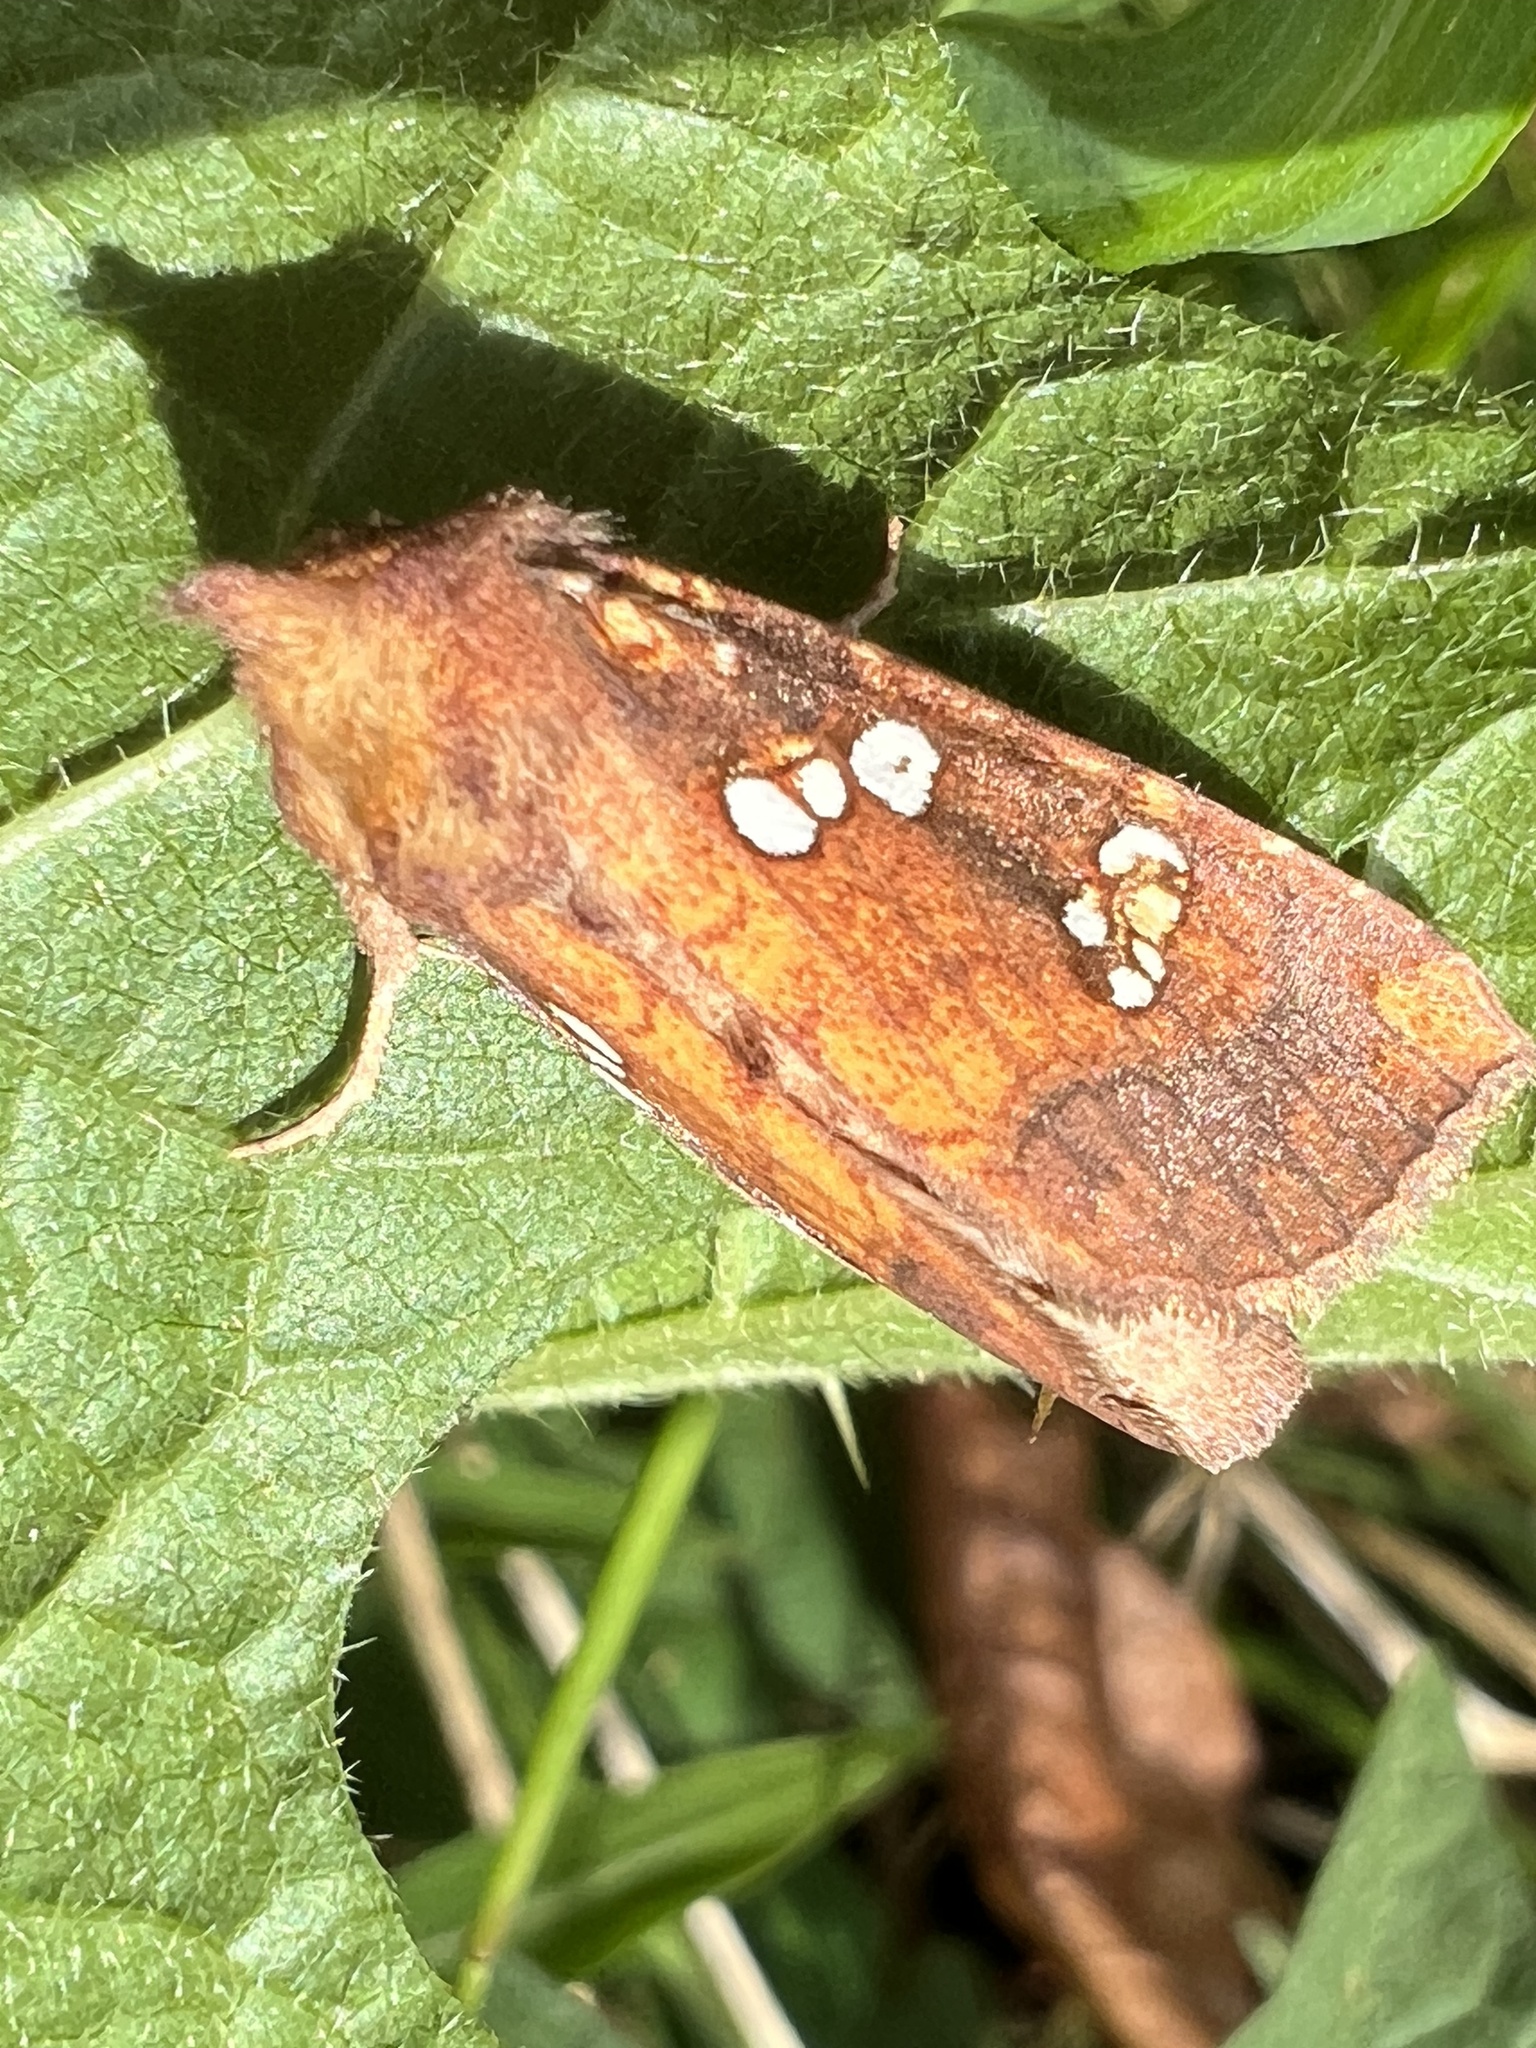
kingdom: Animalia
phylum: Arthropoda
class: Insecta
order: Lepidoptera
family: Noctuidae
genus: Papaipema
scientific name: Papaipema baptisiae
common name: Wild indigo borer moth
